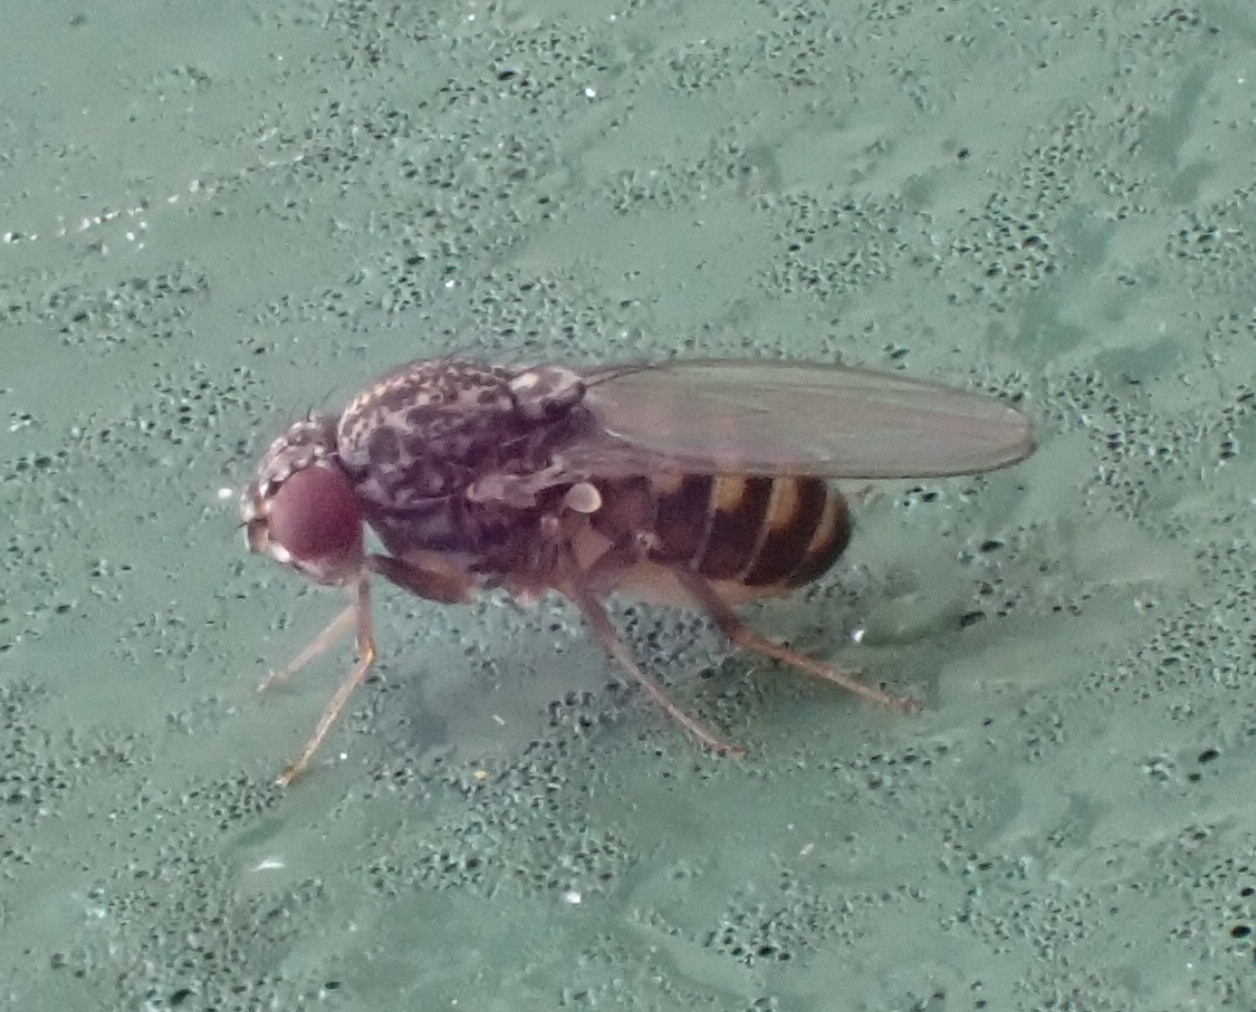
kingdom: Animalia
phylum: Arthropoda
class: Insecta
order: Diptera
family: Drosophilidae
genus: Drosophila
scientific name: Drosophila hydei
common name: Pomace fly
